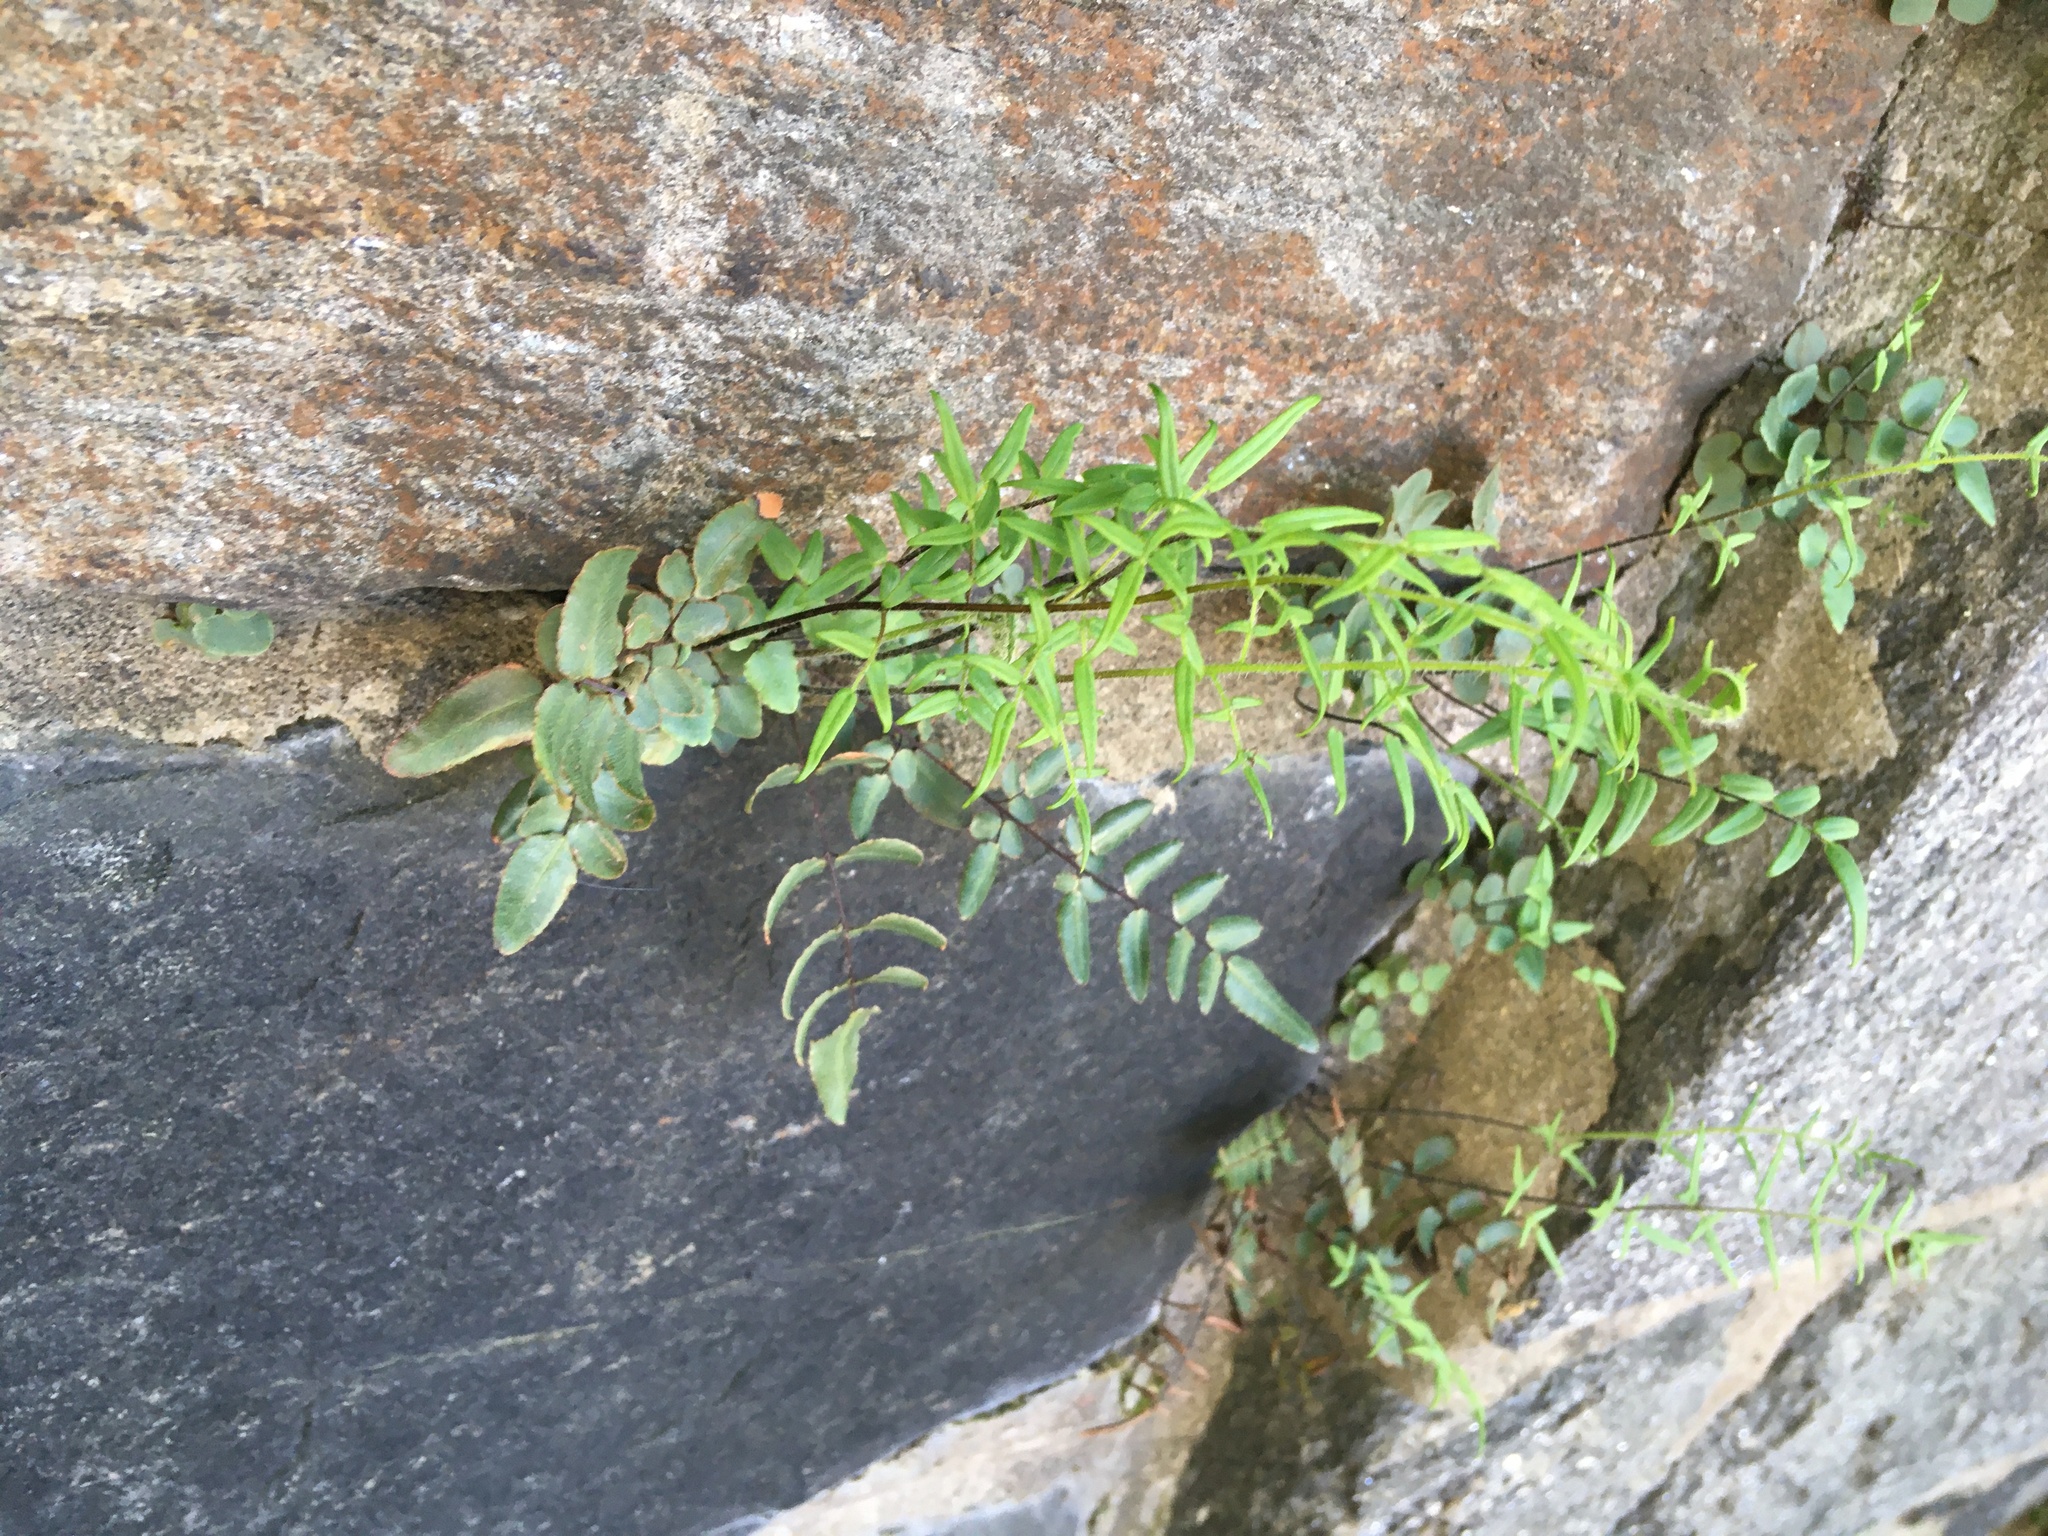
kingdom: Plantae
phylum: Tracheophyta
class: Polypodiopsida
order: Polypodiales
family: Pteridaceae
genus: Pellaea
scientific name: Pellaea atropurpurea
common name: Hairy cliffbrake
